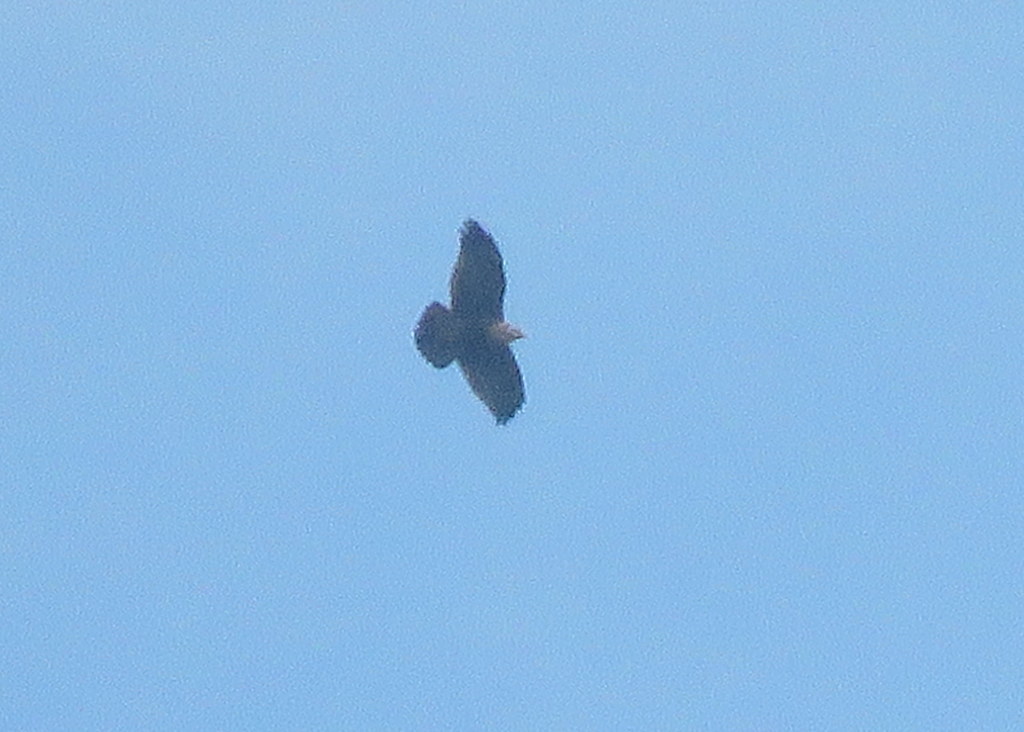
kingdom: Animalia
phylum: Chordata
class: Aves
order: Accipitriformes
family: Accipitridae
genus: Geranoaetus
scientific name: Geranoaetus melanoleucus
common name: Black-chested buzzard-eagle
